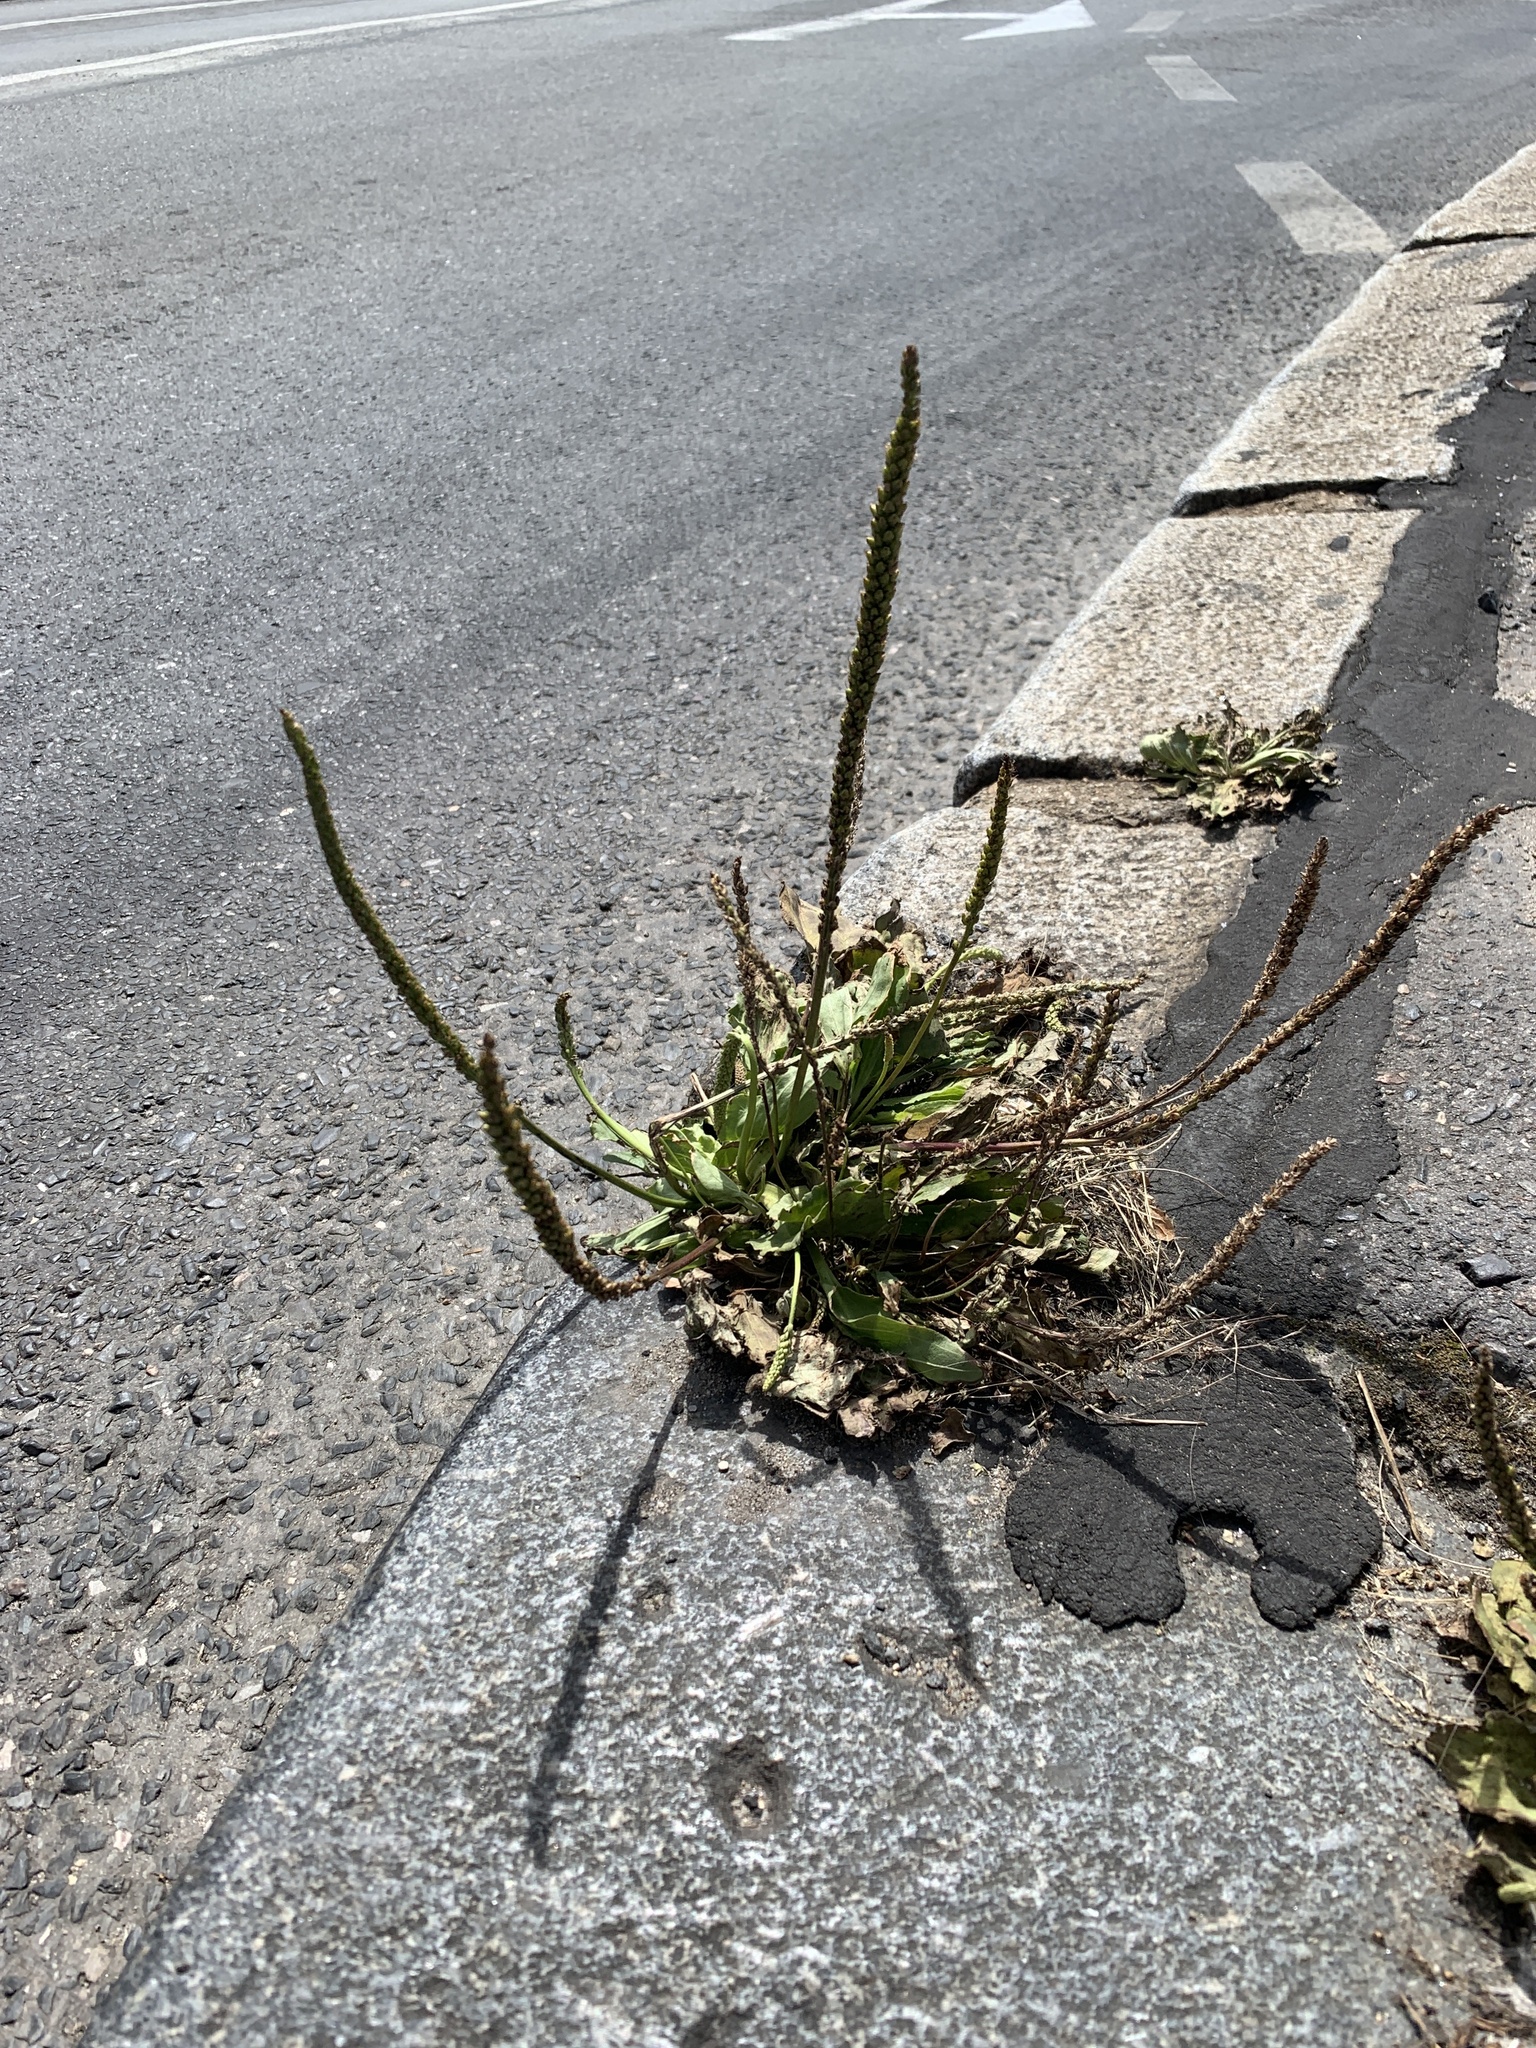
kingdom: Plantae
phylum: Tracheophyta
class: Magnoliopsida
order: Lamiales
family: Plantaginaceae
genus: Plantago
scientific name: Plantago major
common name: Common plantain
